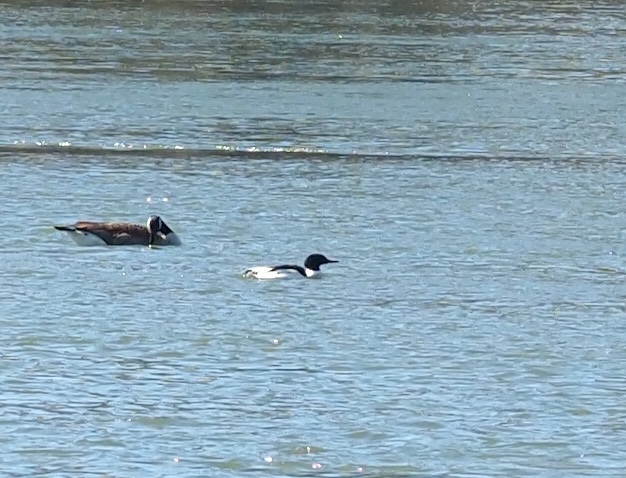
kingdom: Animalia
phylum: Chordata
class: Aves
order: Anseriformes
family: Anatidae
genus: Mergus
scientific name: Mergus merganser
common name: Common merganser
